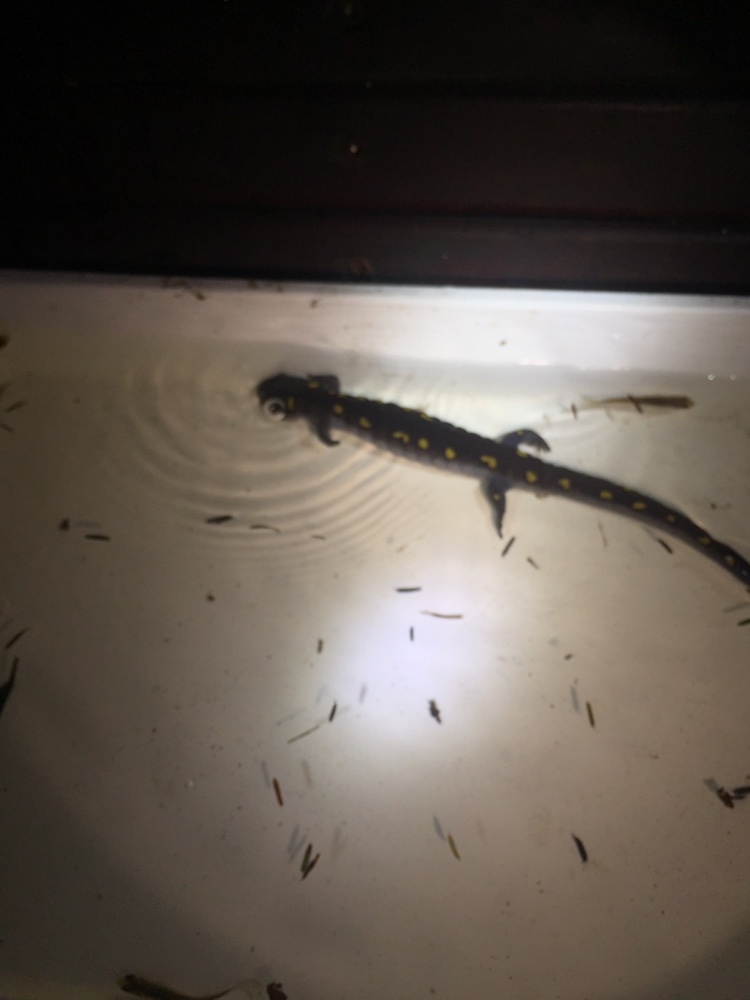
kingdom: Animalia
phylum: Chordata
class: Amphibia
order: Caudata
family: Ambystomatidae
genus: Ambystoma
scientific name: Ambystoma maculatum
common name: Spotted salamander
